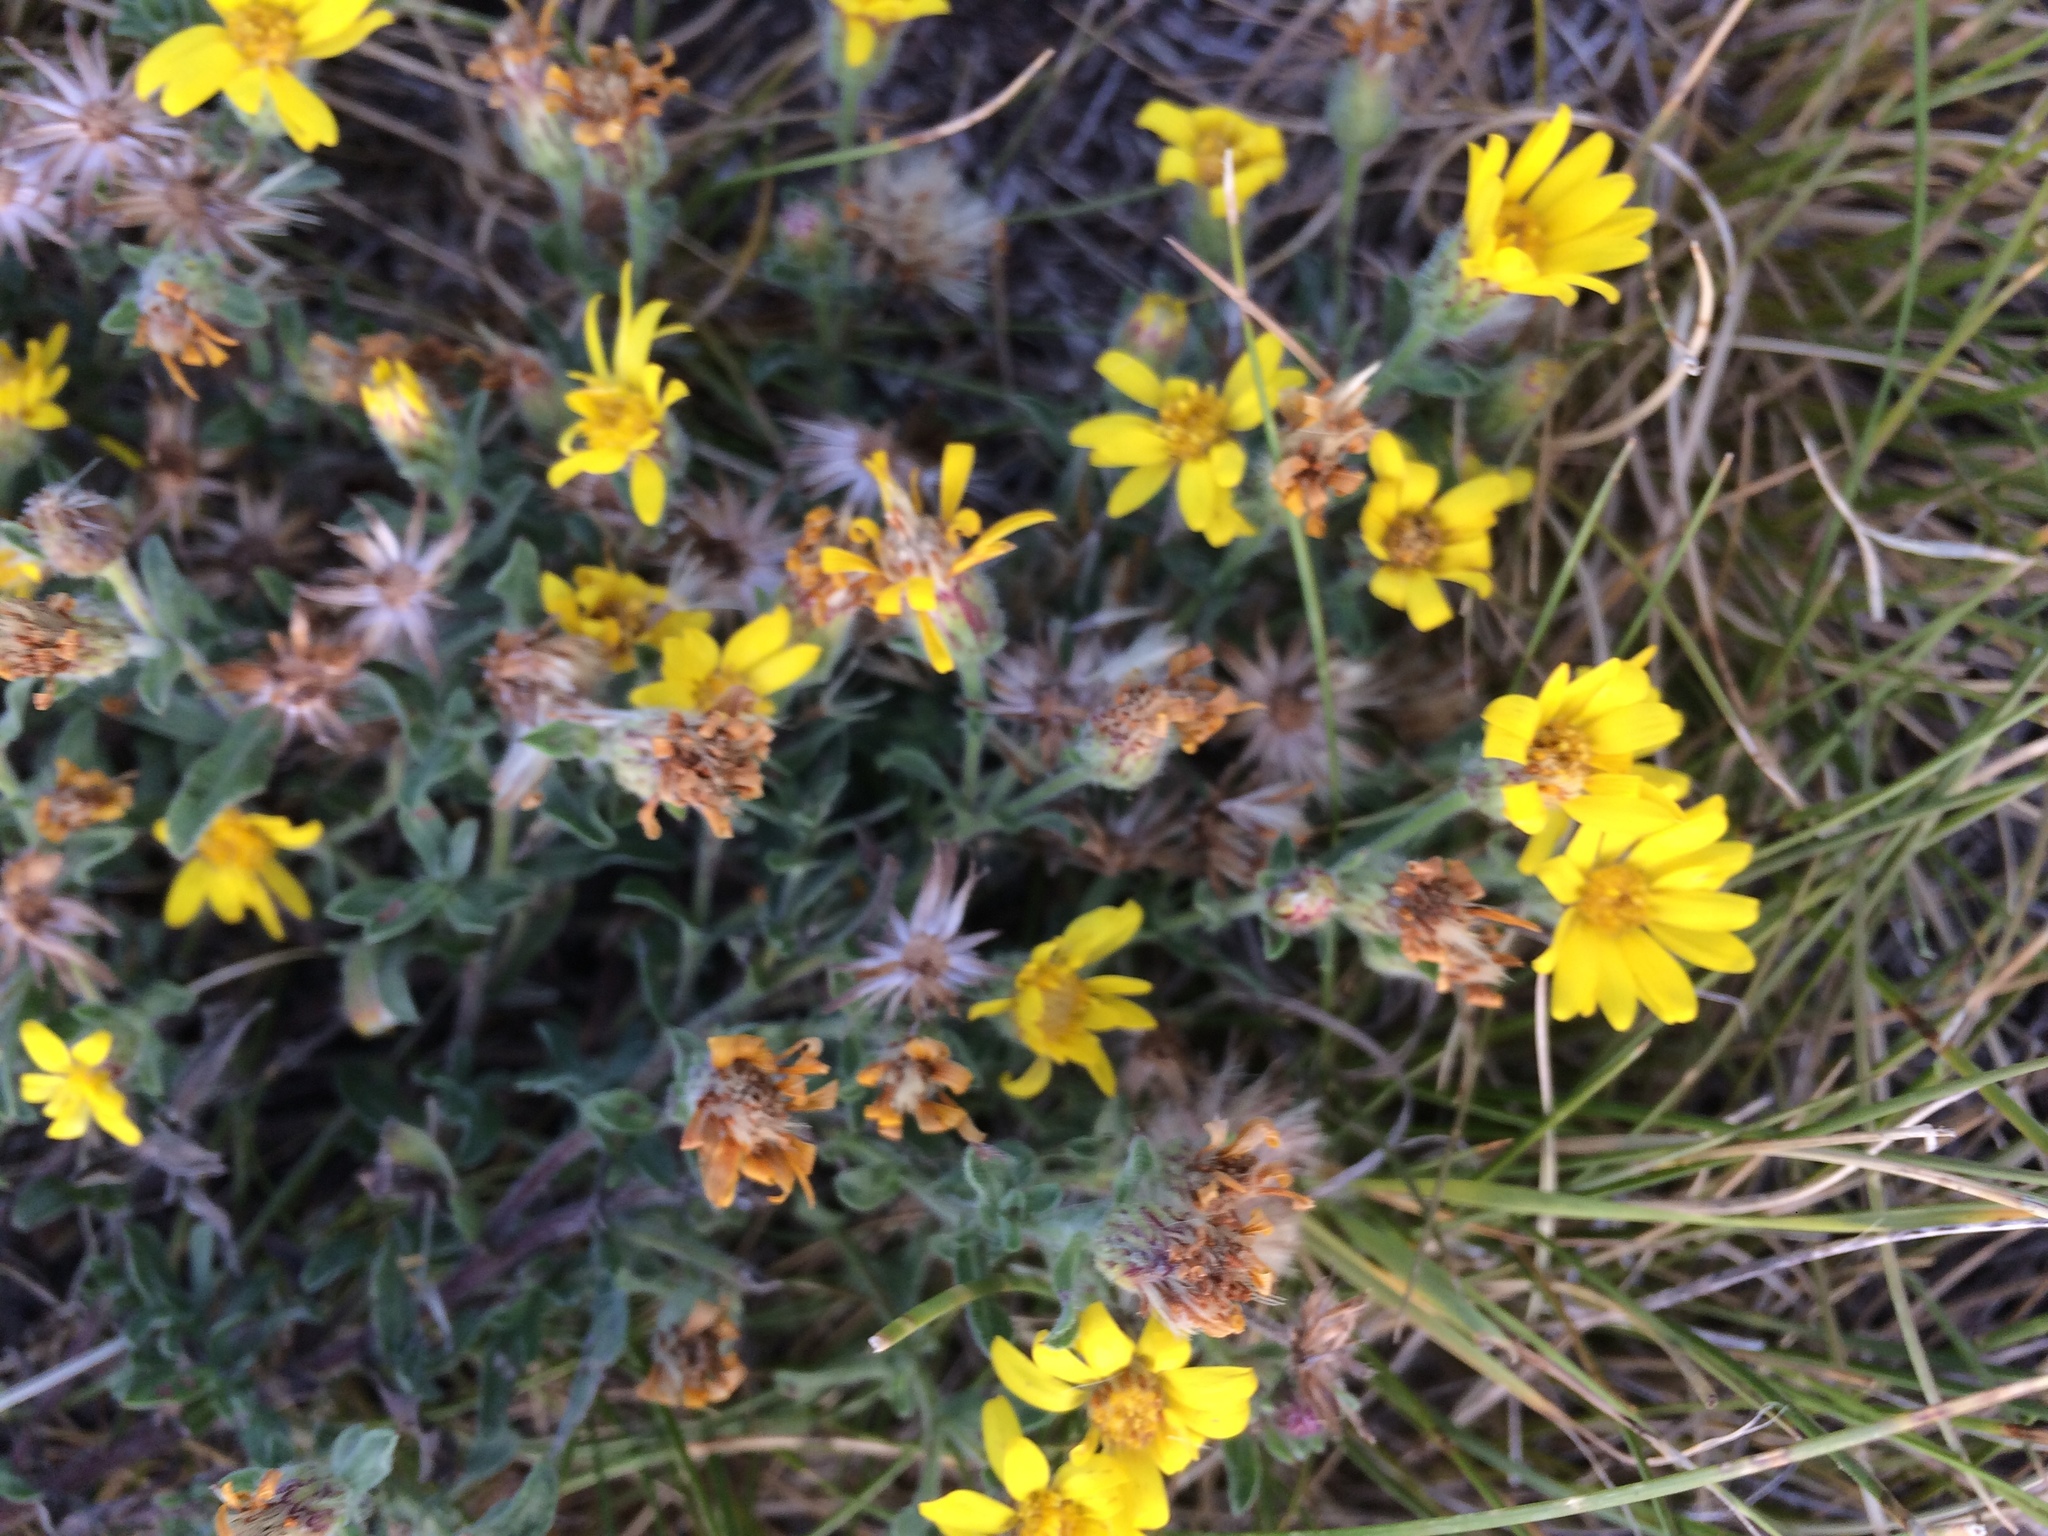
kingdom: Plantae
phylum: Tracheophyta
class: Magnoliopsida
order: Asterales
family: Asteraceae
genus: Heterotheca
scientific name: Heterotheca villosa
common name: Hairy false goldenaster
